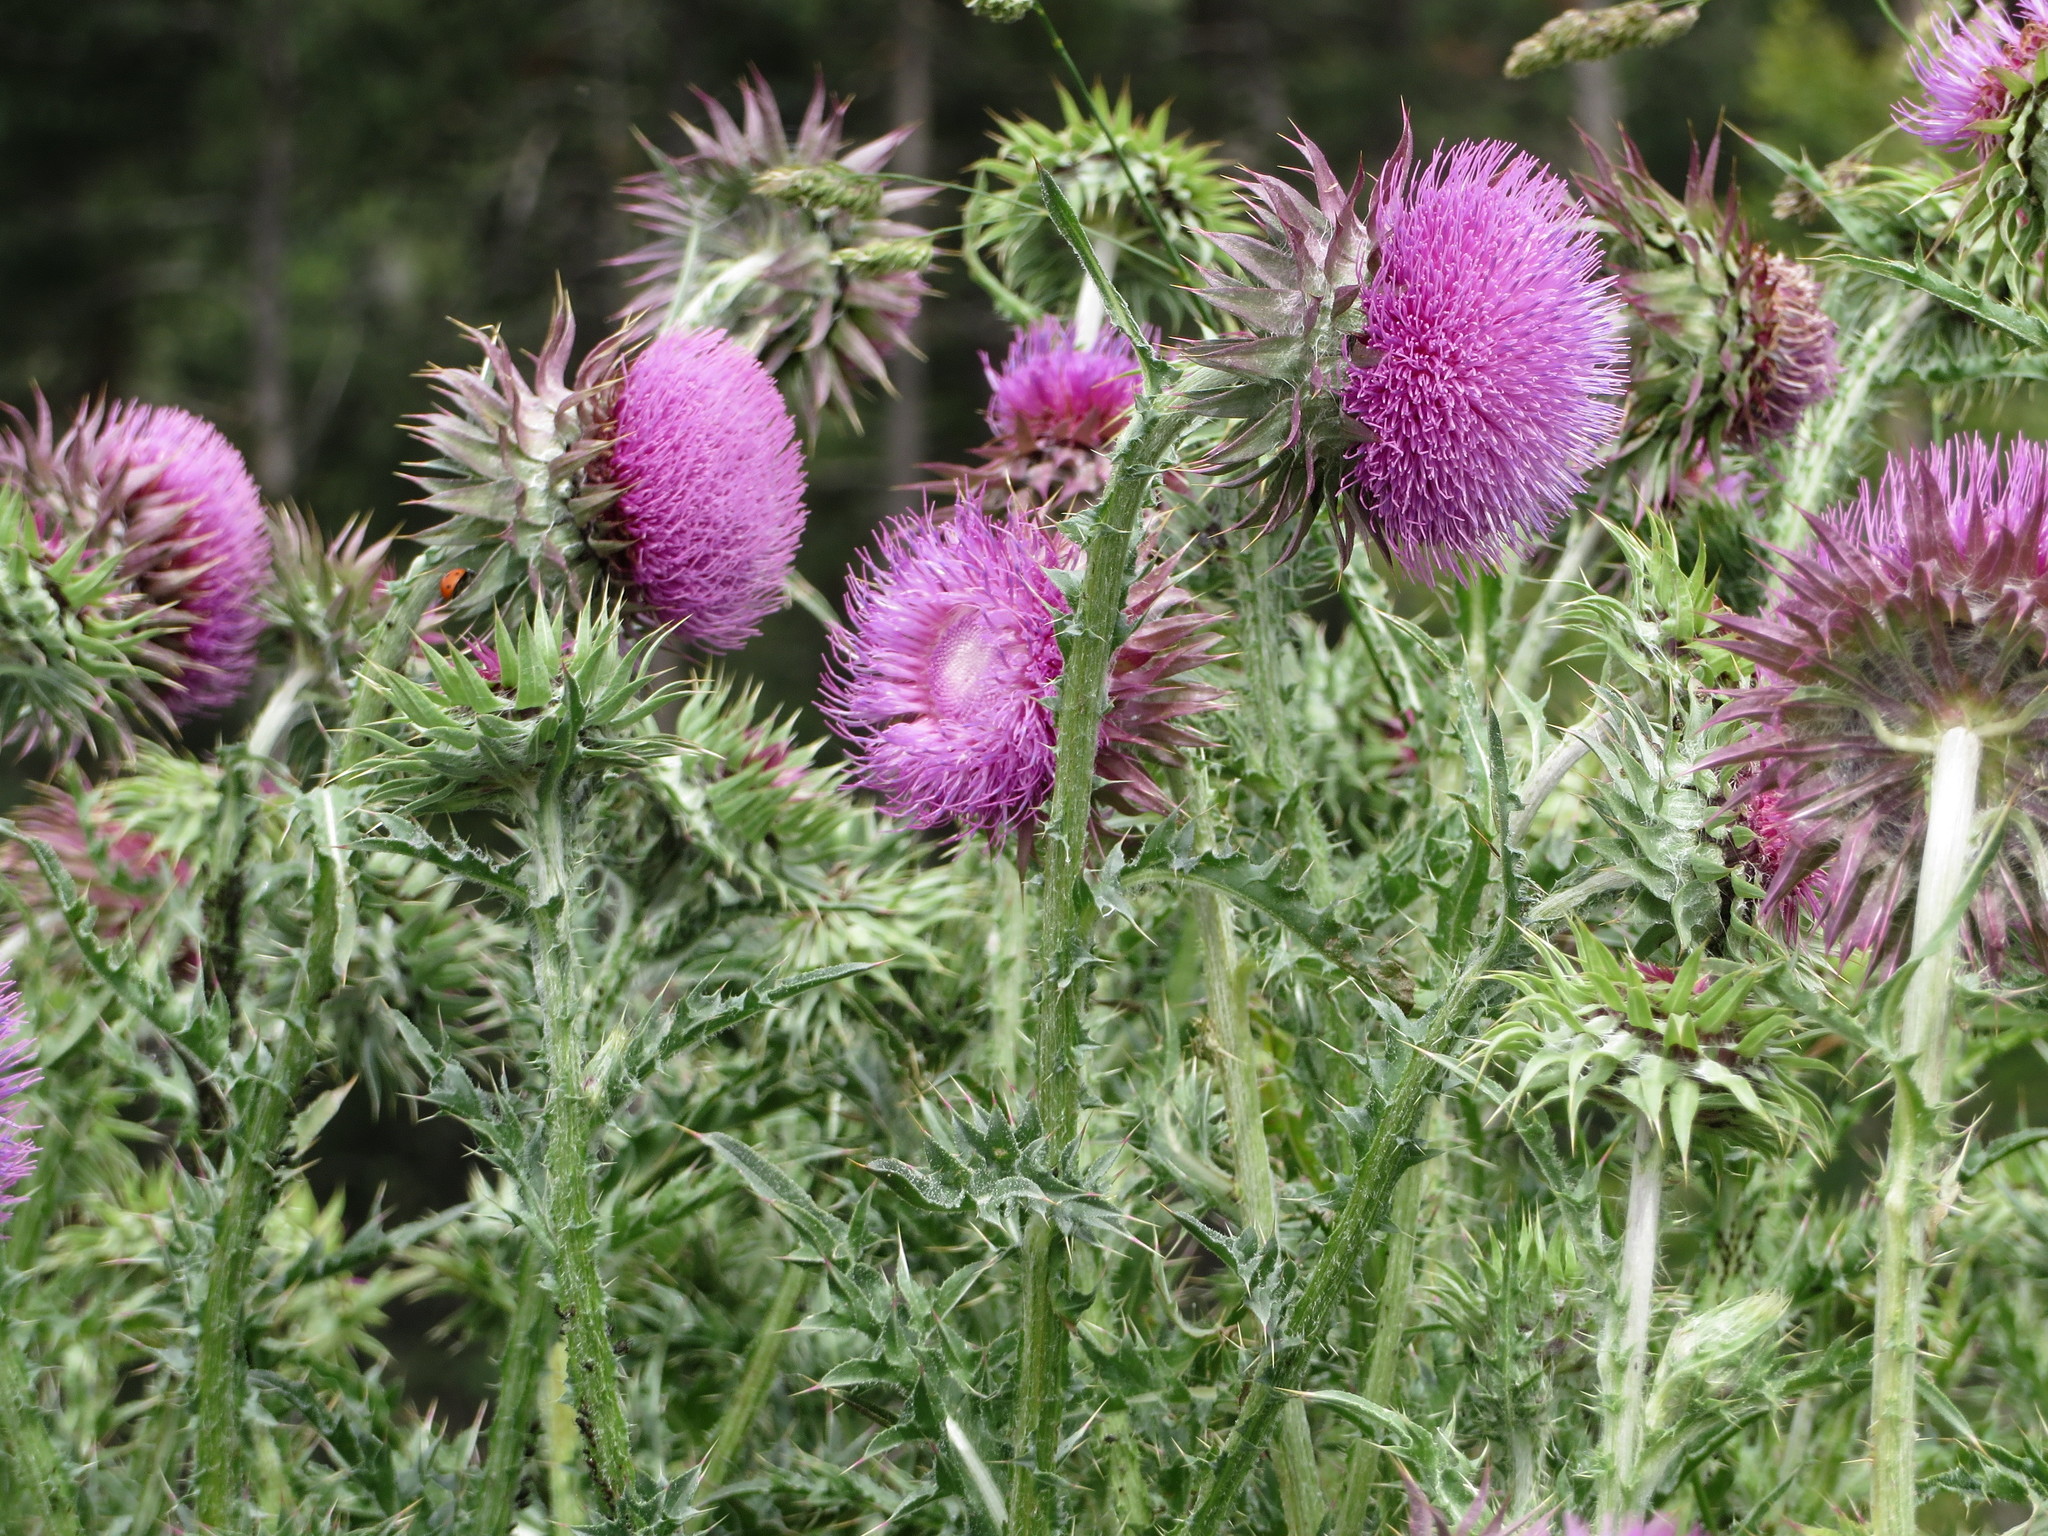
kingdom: Plantae
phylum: Tracheophyta
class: Magnoliopsida
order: Asterales
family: Asteraceae
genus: Carduus
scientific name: Carduus nutans
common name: Musk thistle
